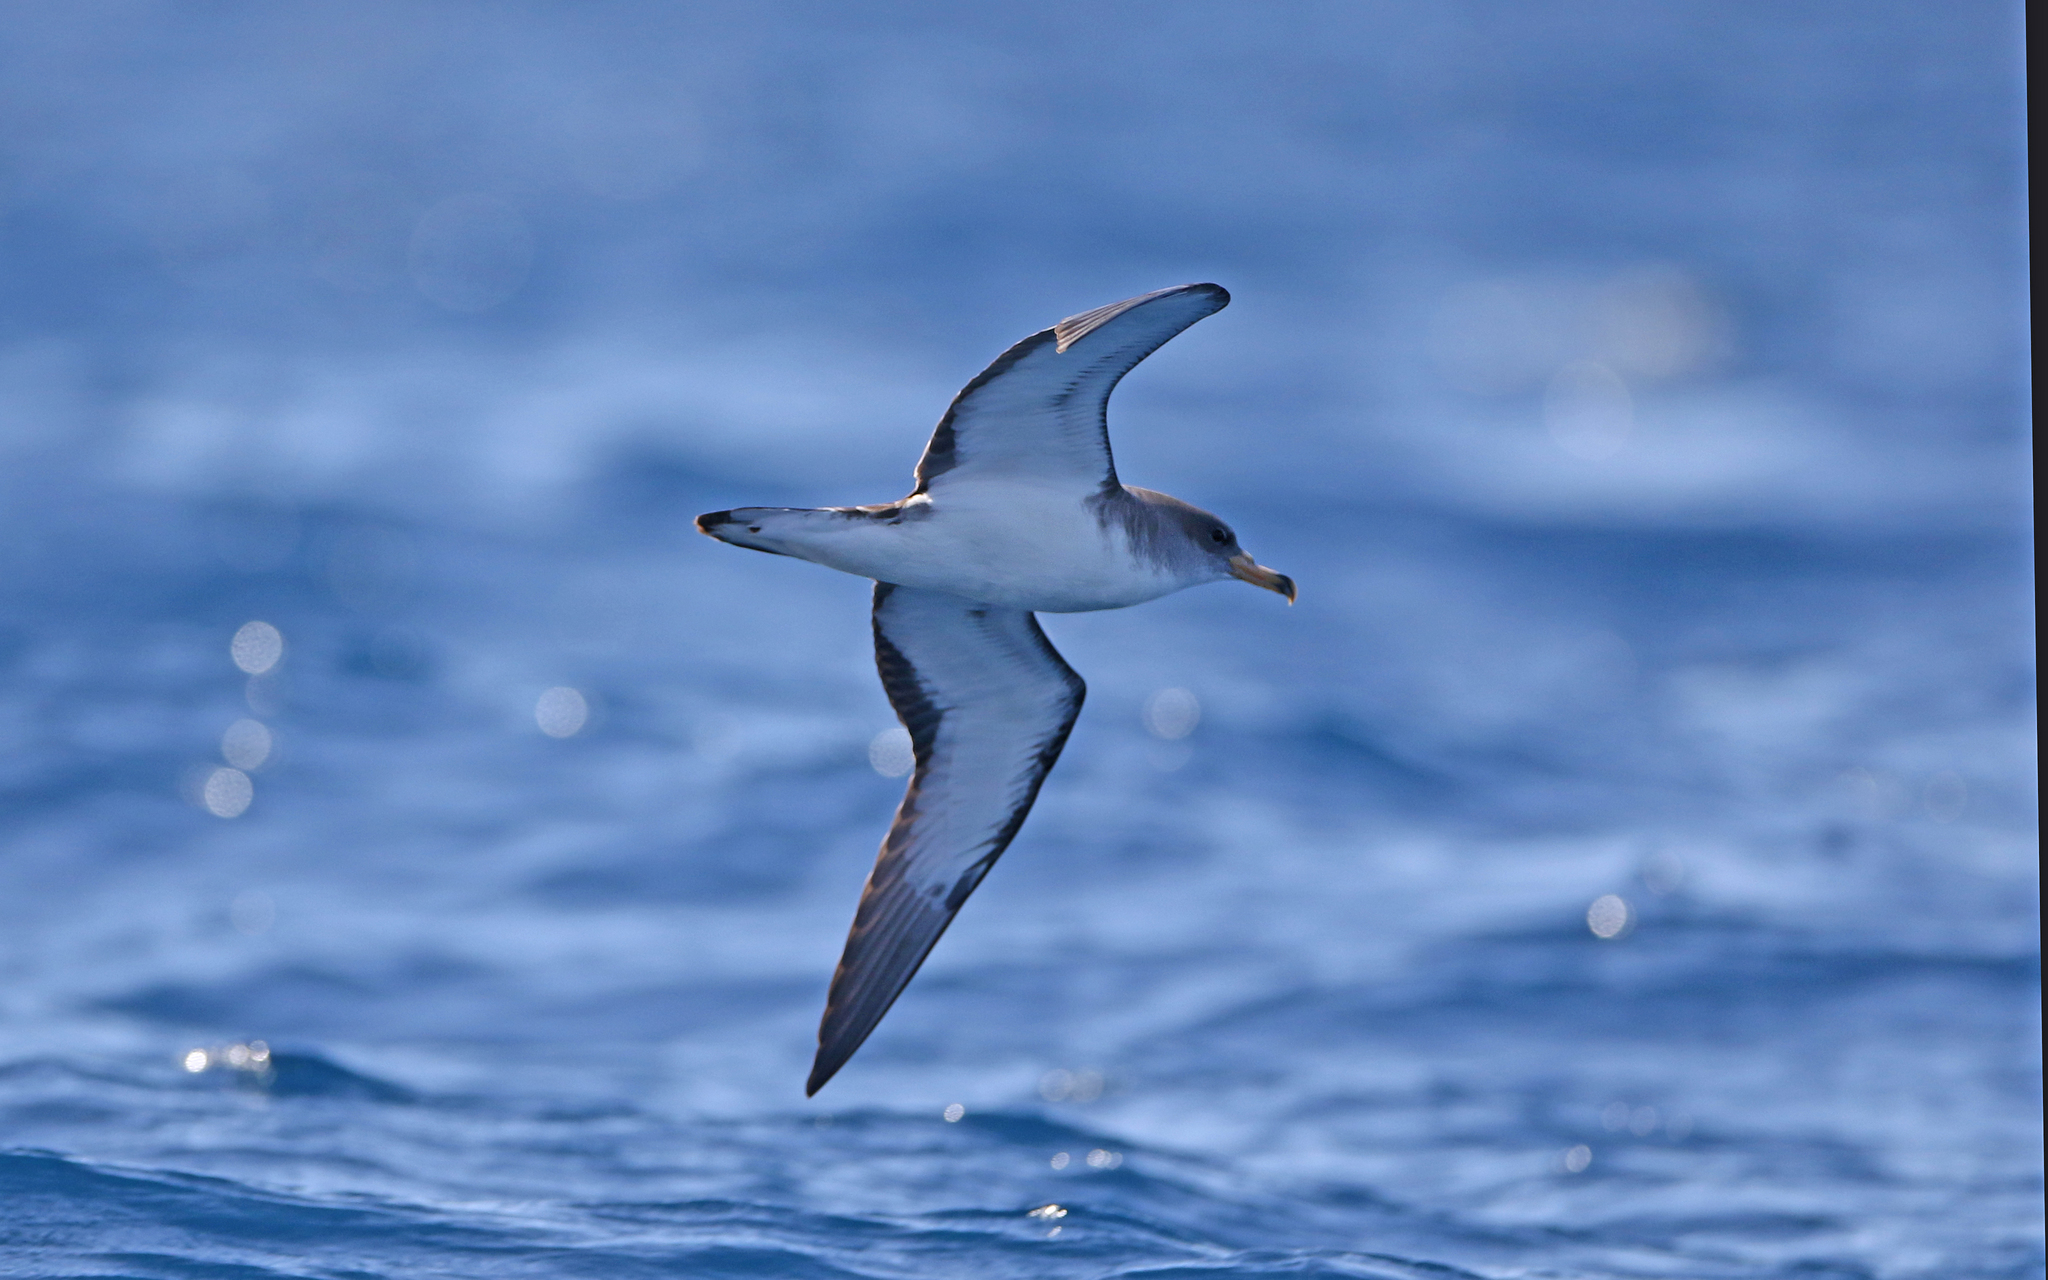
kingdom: Animalia
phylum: Chordata
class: Aves
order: Procellariiformes
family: Procellariidae
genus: Calonectris
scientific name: Calonectris diomedea
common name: Cory's shearwater
